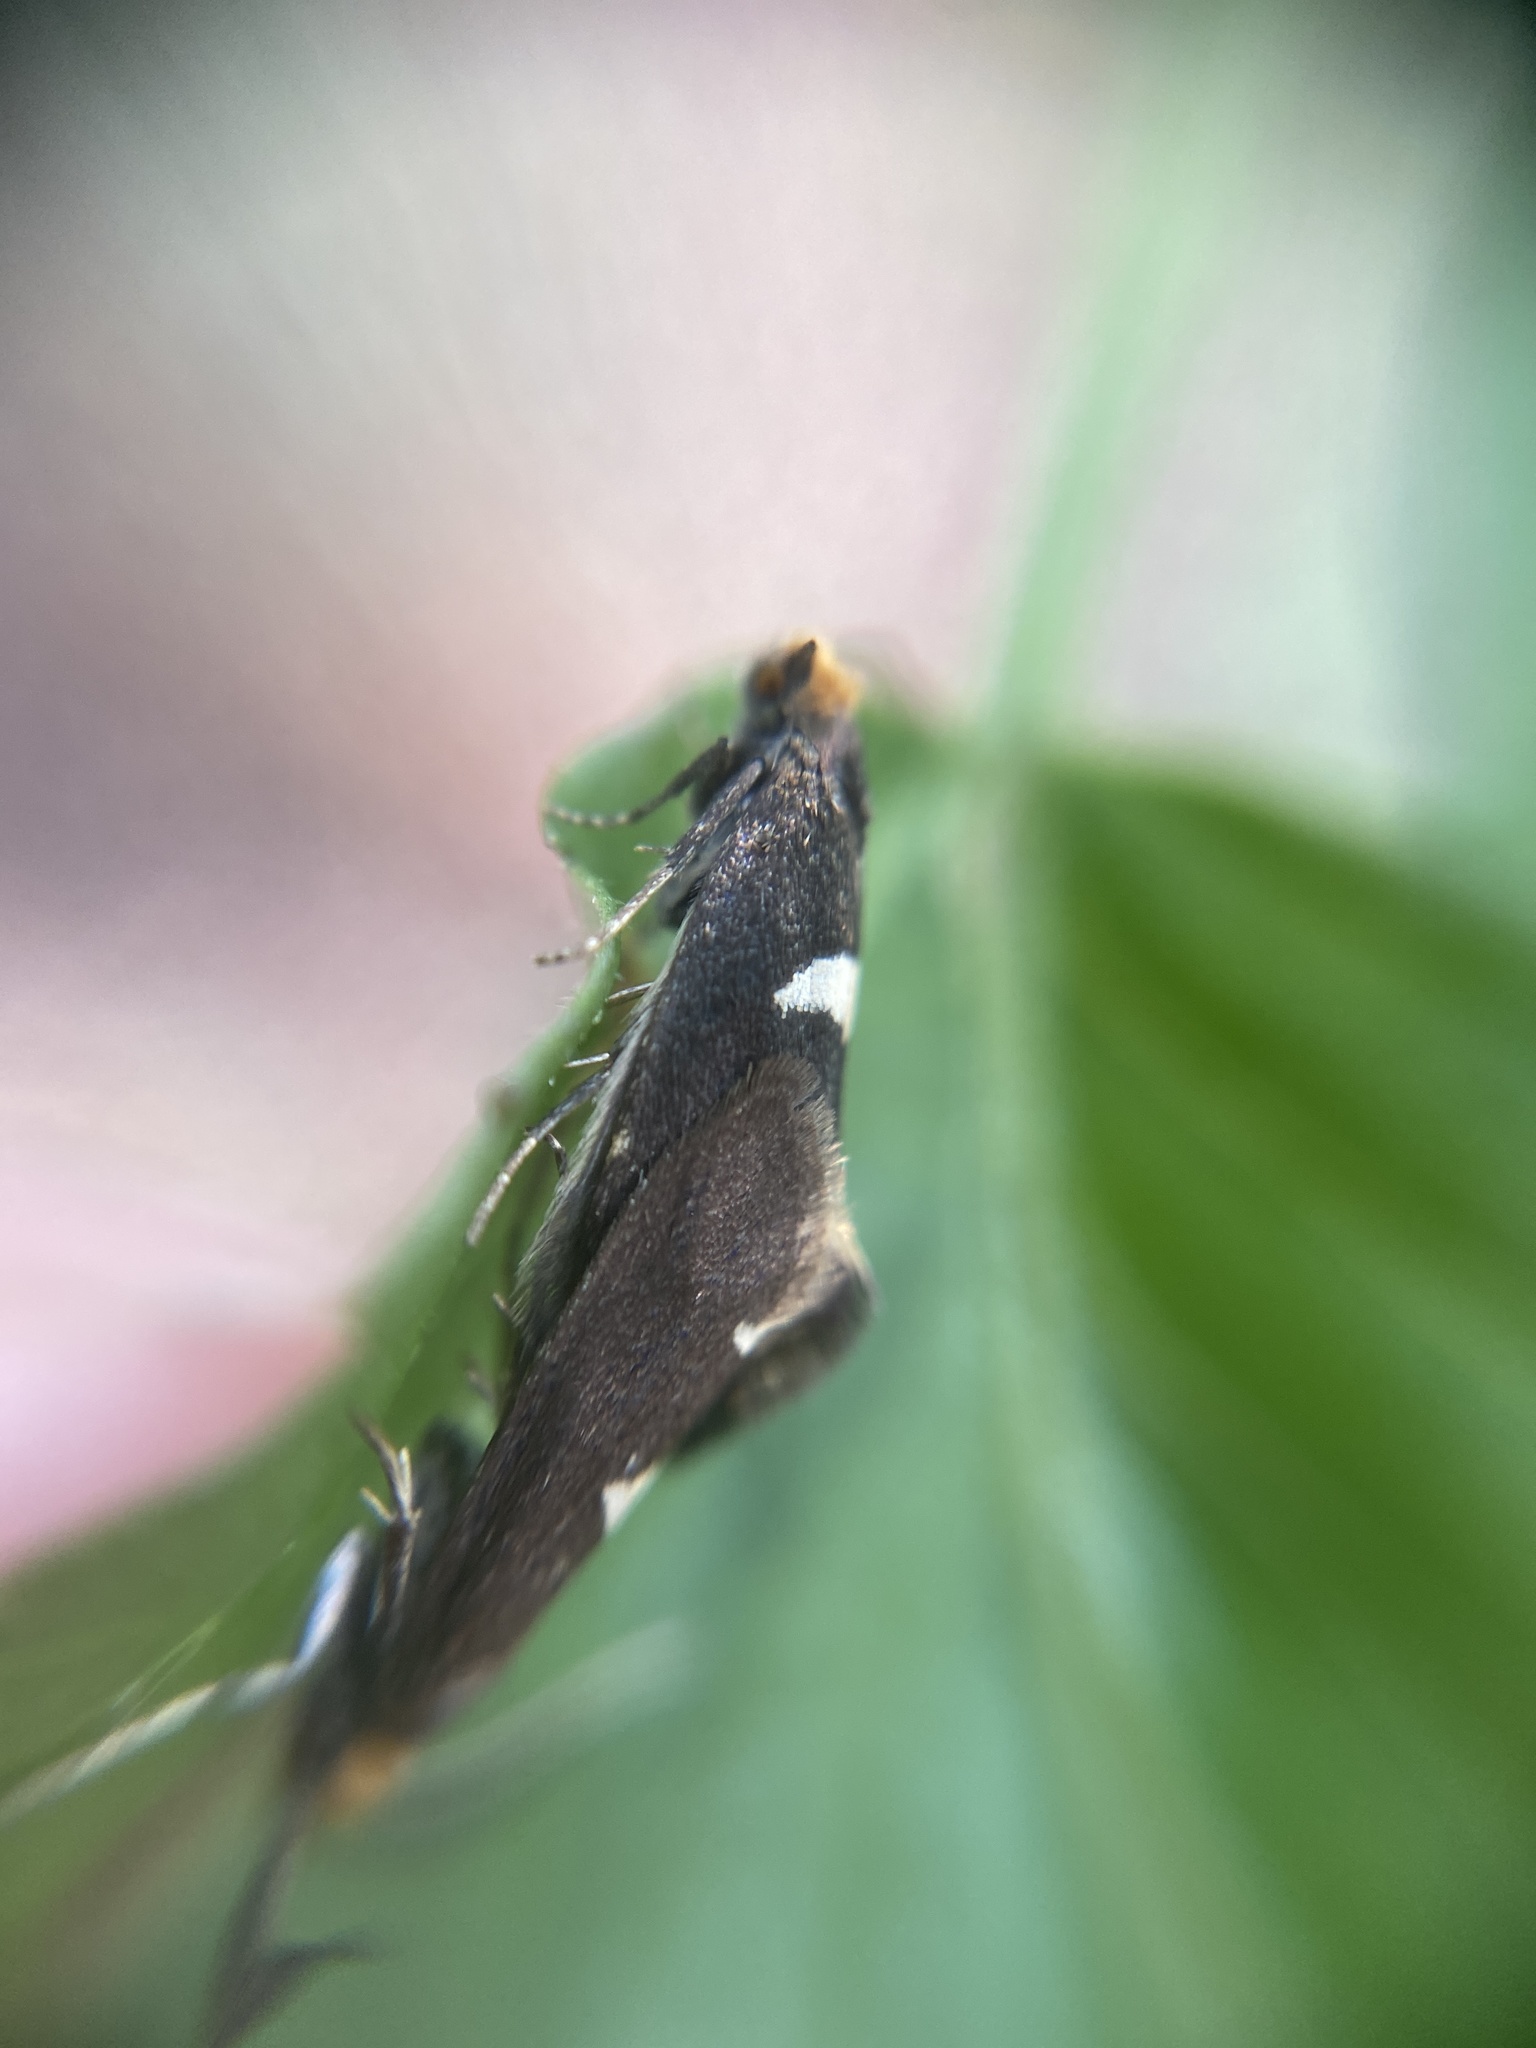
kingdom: Animalia
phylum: Arthropoda
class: Insecta
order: Lepidoptera
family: Incurvariidae
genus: Incurvaria
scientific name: Incurvaria masculella
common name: Feathered leaf-cutter
